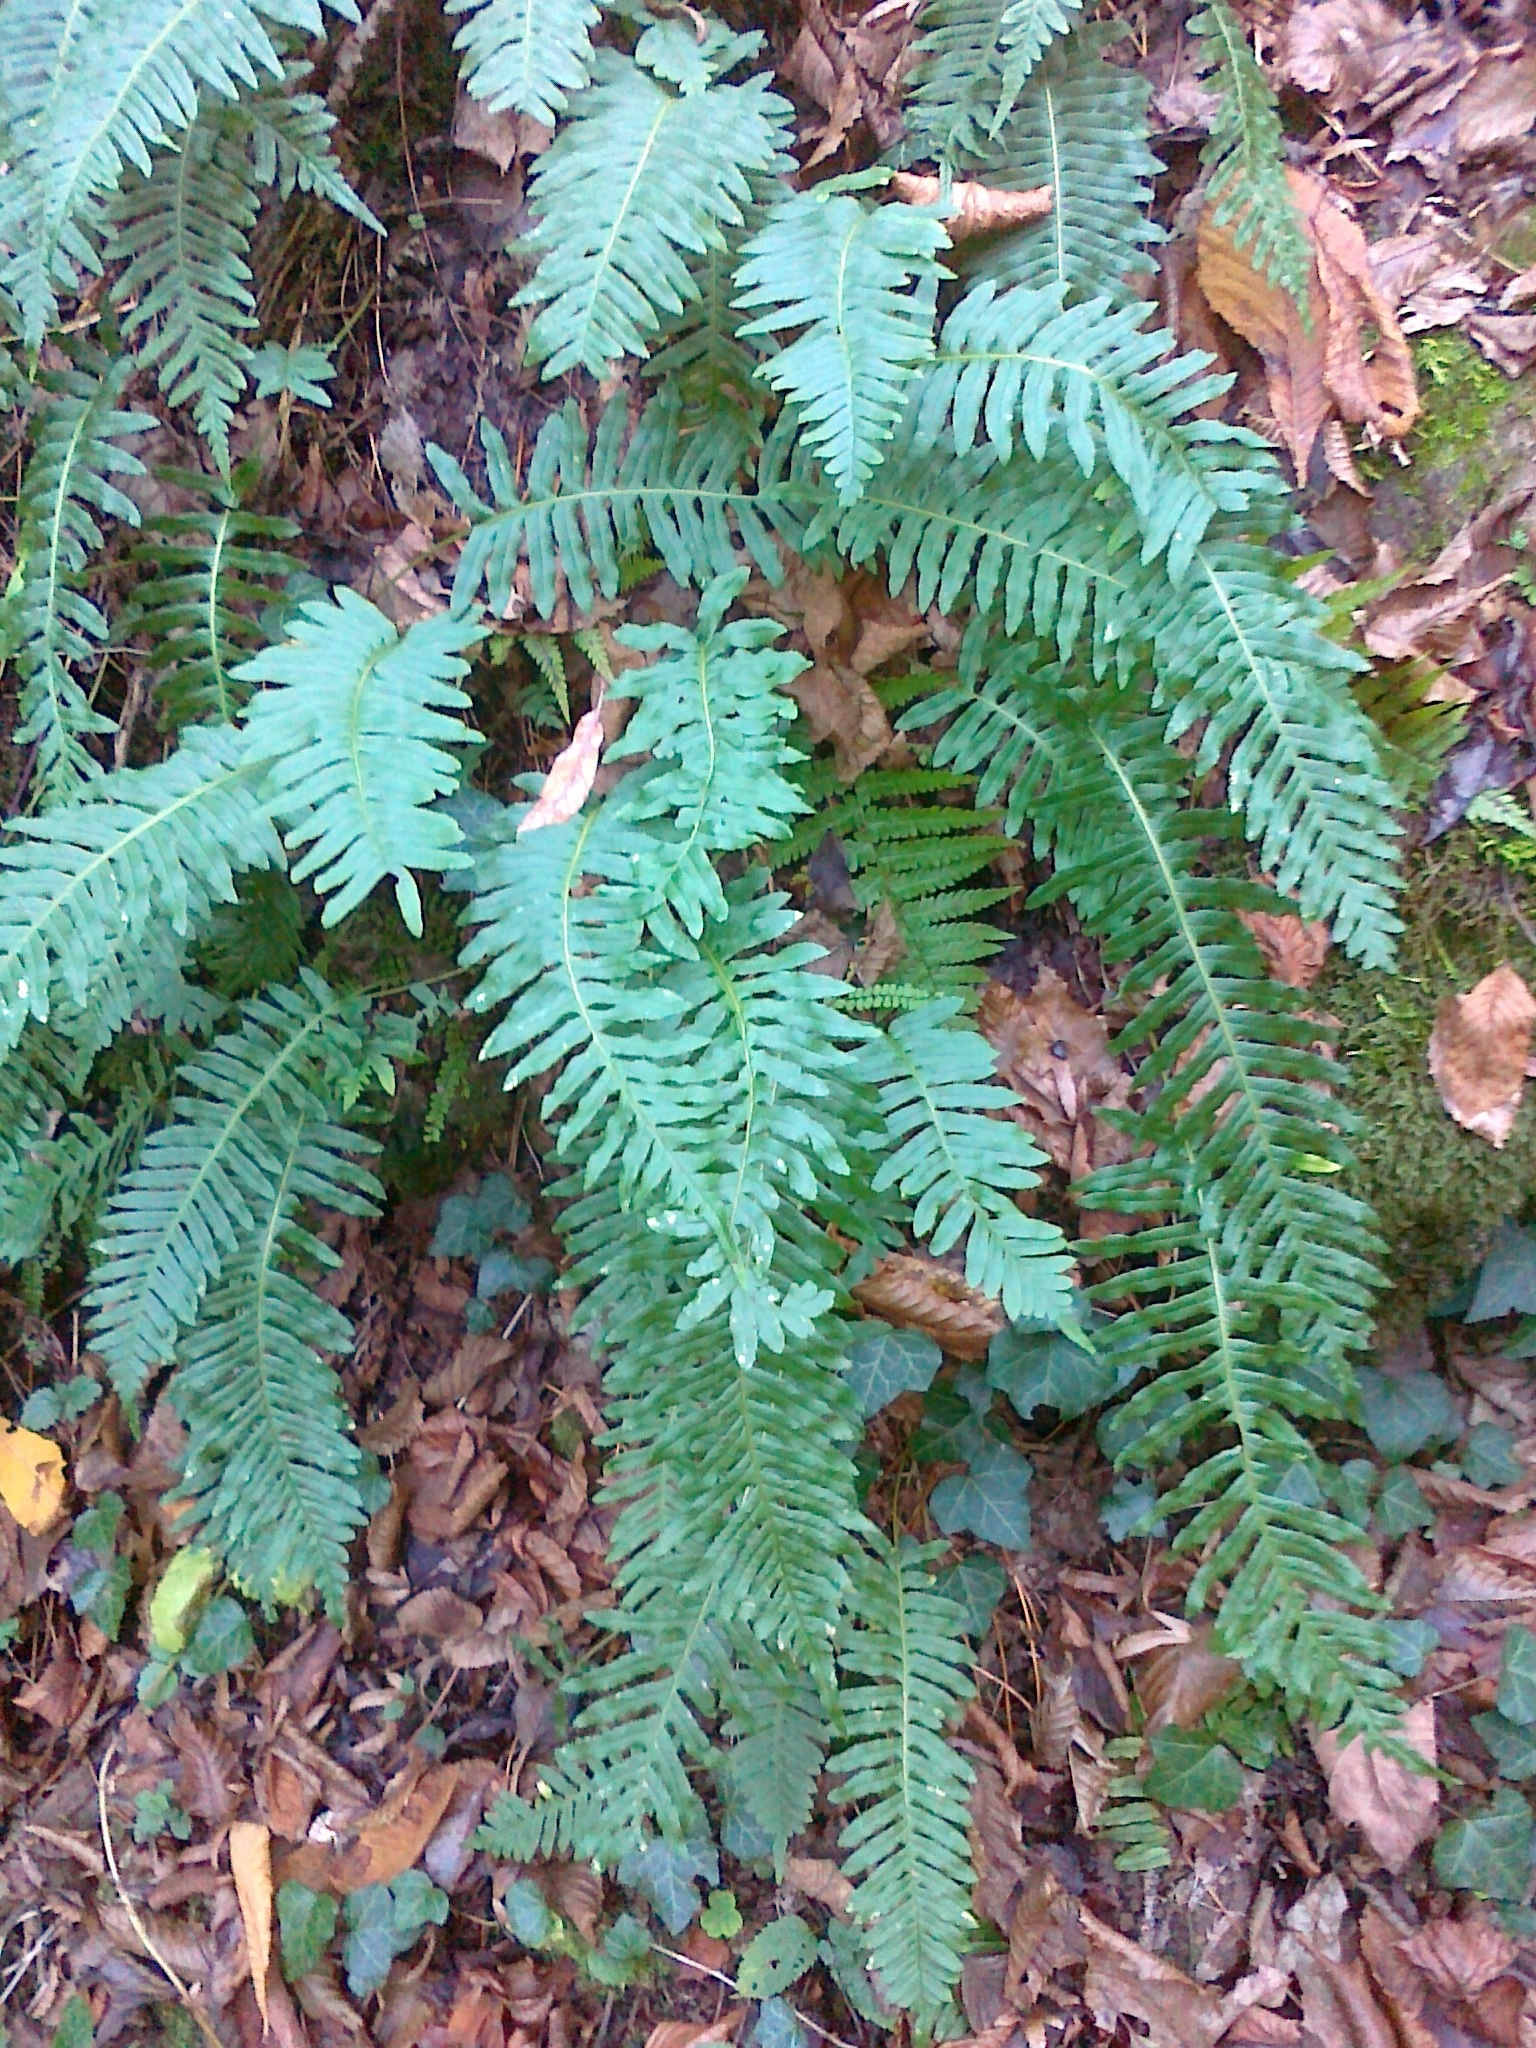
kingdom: Plantae
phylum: Tracheophyta
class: Polypodiopsida
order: Polypodiales
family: Polypodiaceae
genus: Polypodium
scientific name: Polypodium vulgare
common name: Common polypody
